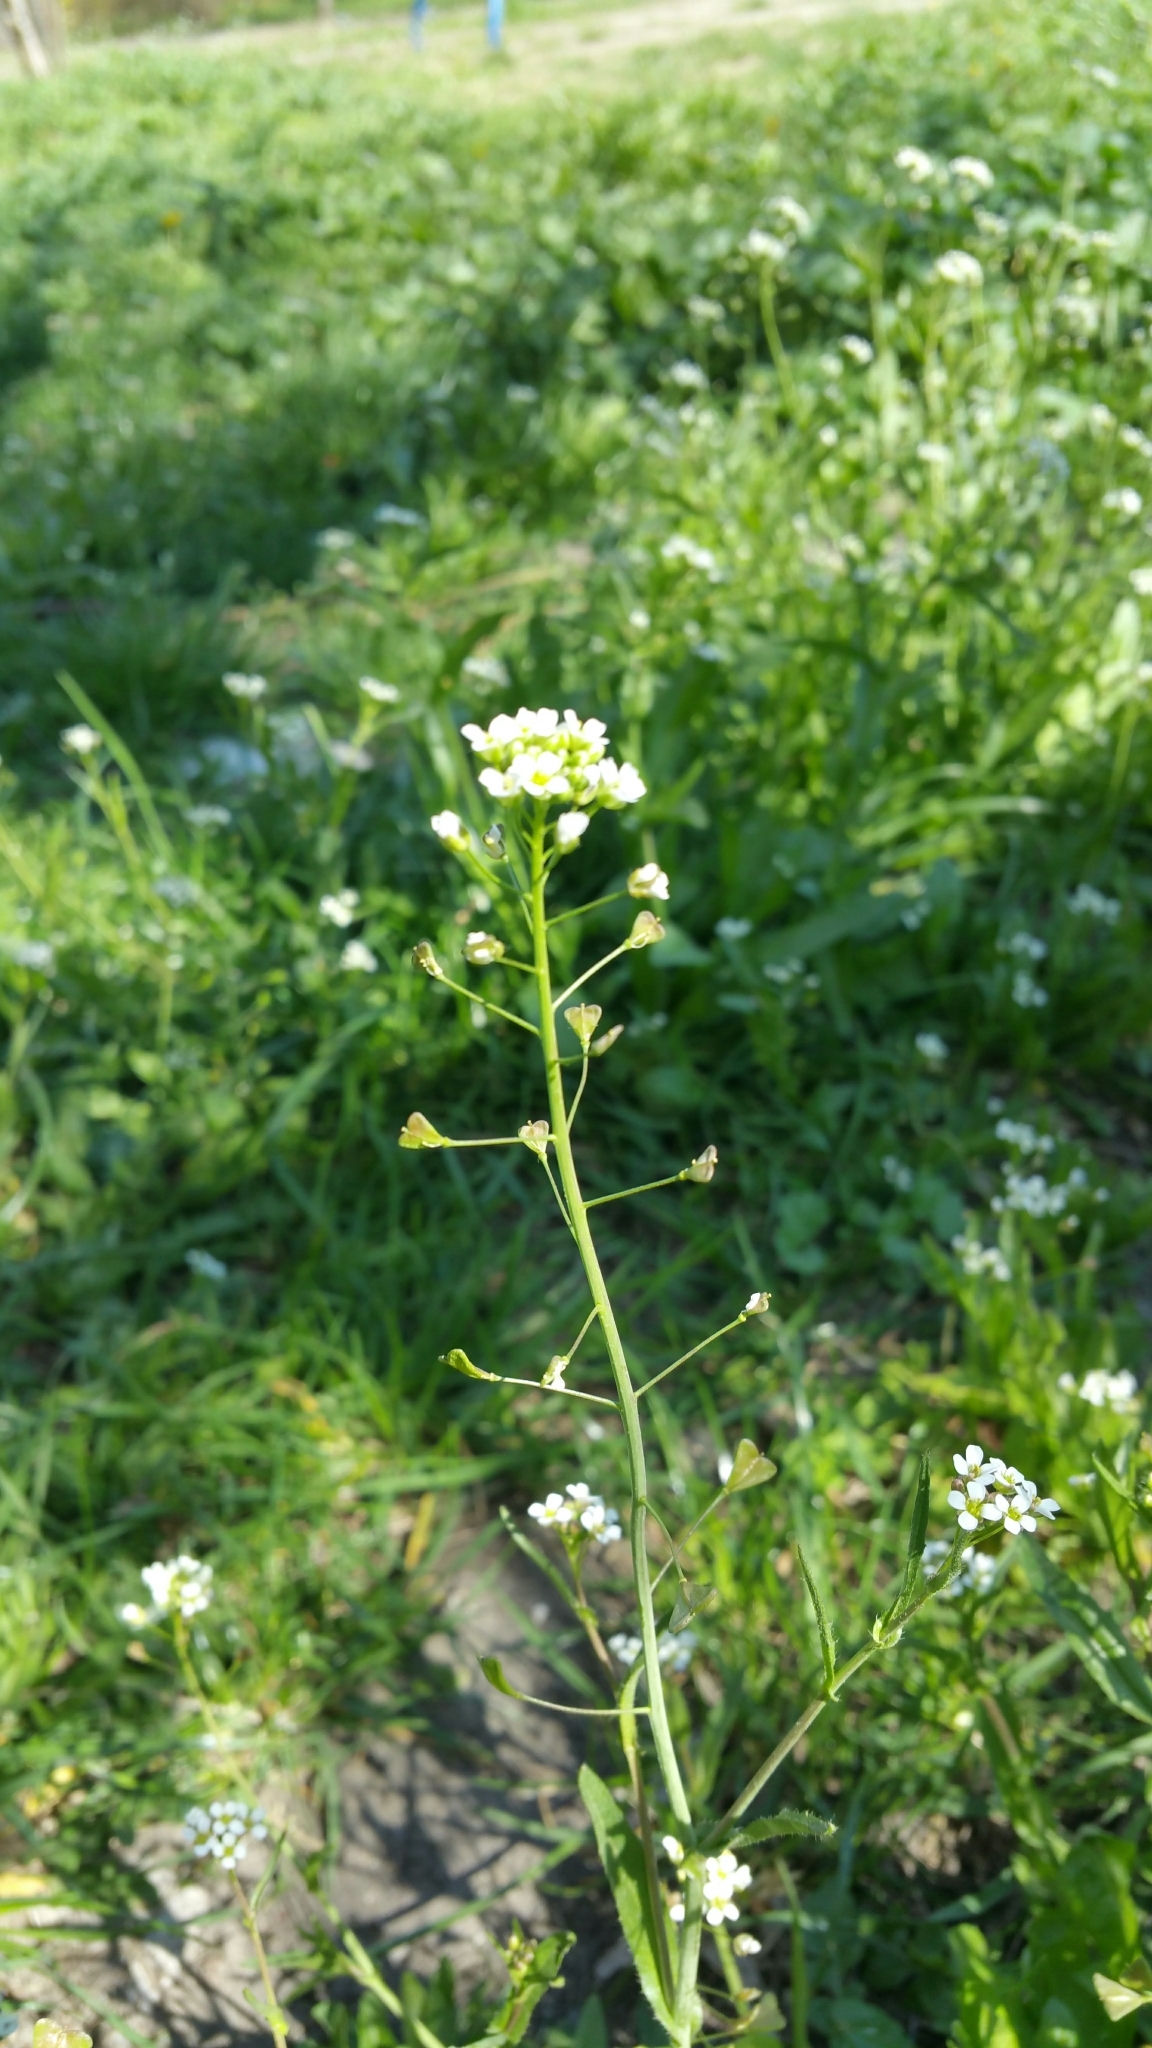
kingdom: Plantae
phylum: Tracheophyta
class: Magnoliopsida
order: Brassicales
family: Brassicaceae
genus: Capsella
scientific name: Capsella bursa-pastoris
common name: Shepherd's purse
